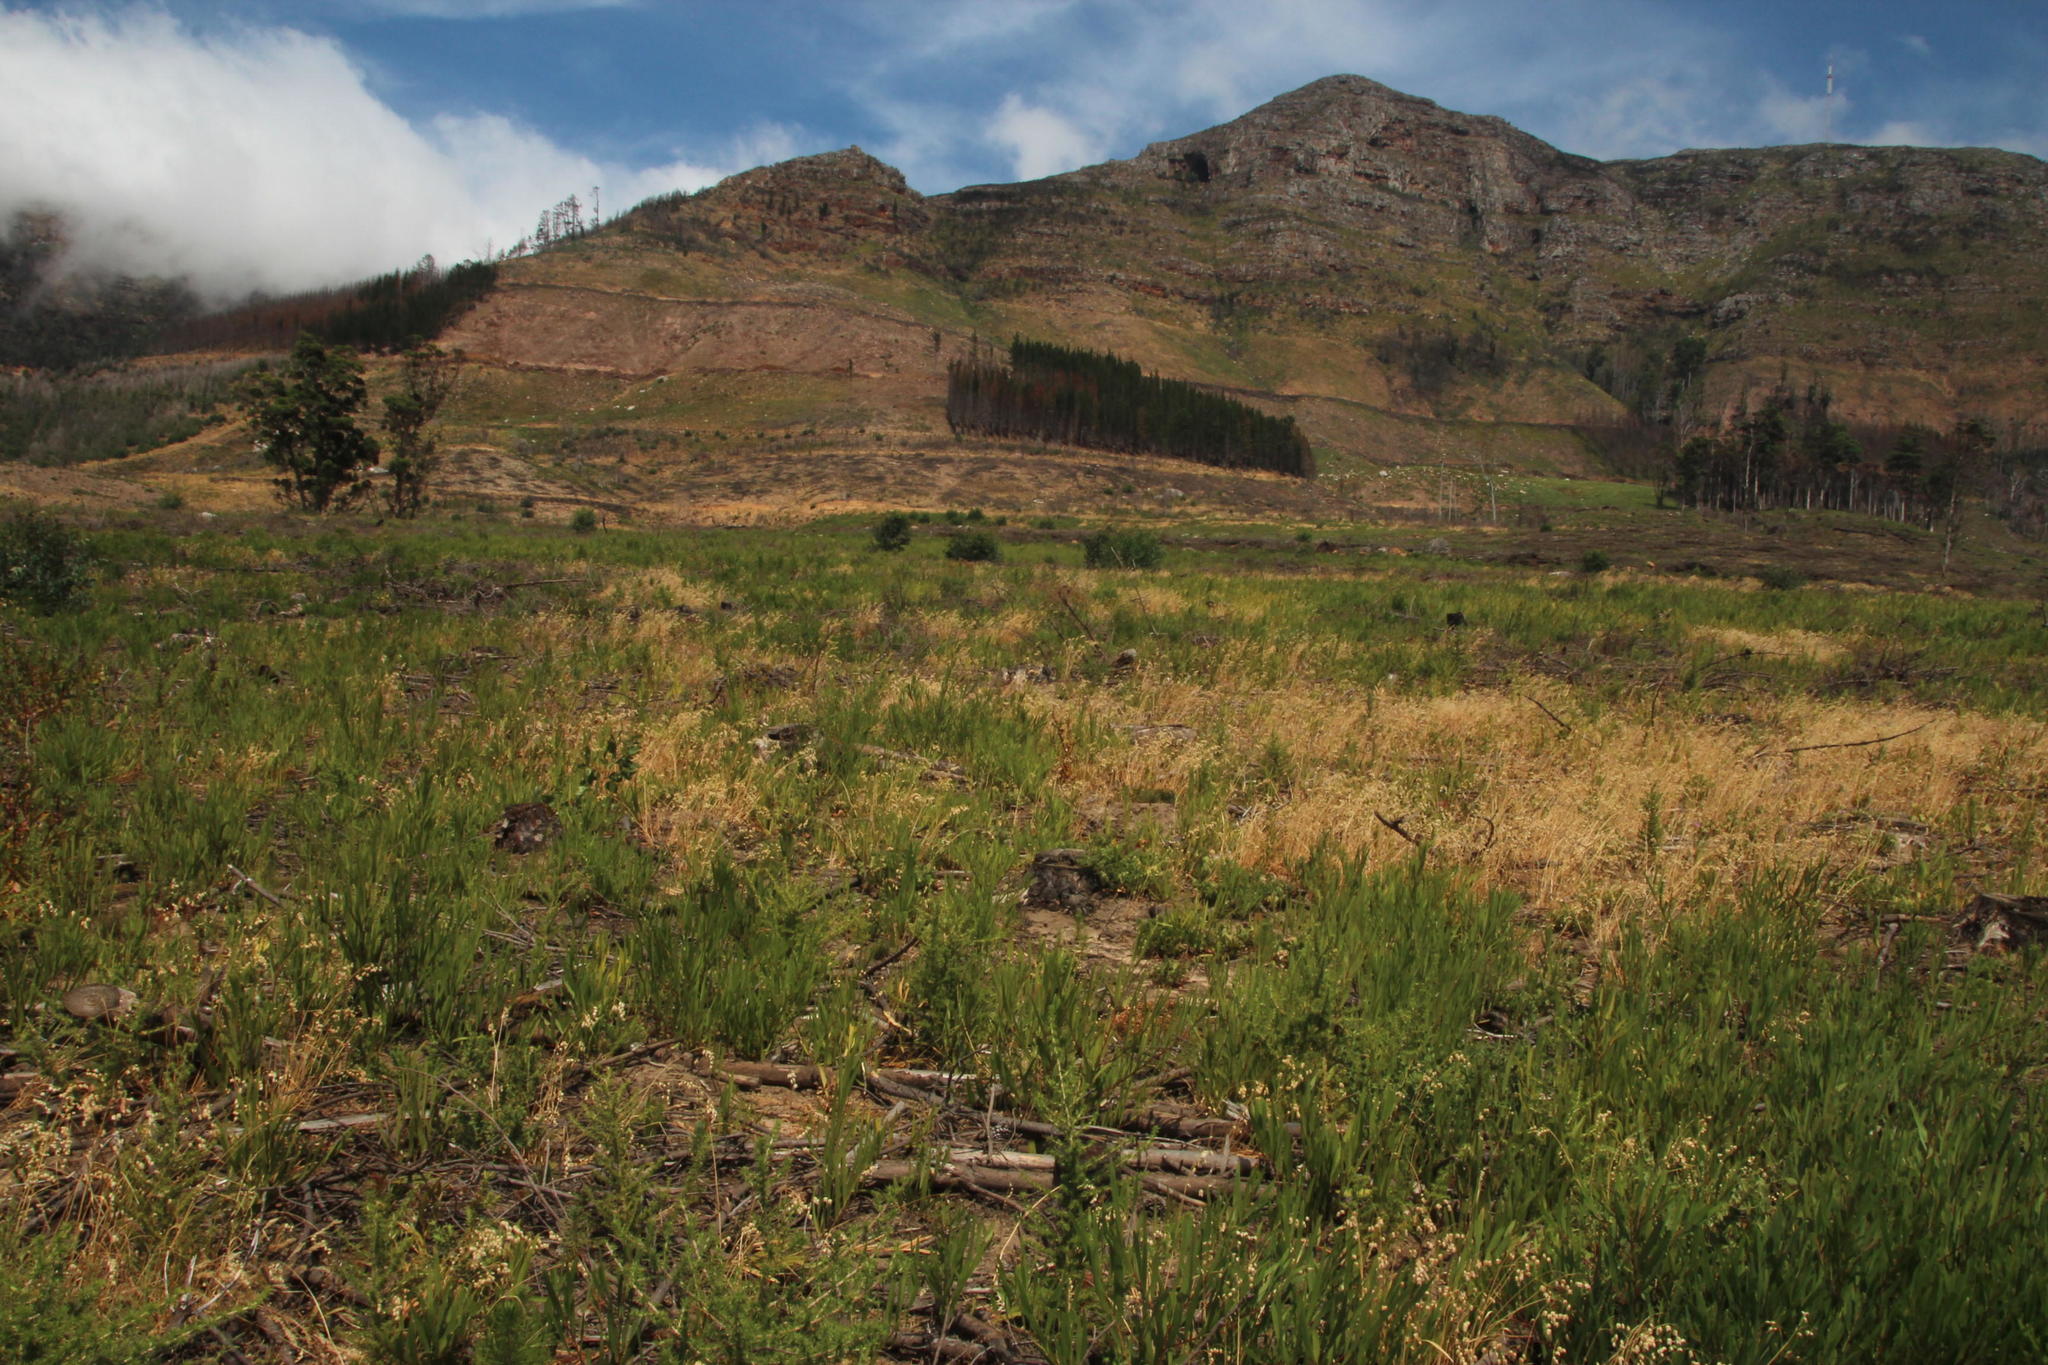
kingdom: Plantae
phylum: Tracheophyta
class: Pinopsida
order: Pinales
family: Pinaceae
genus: Pinus
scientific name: Pinus radiata
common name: Monterey pine
